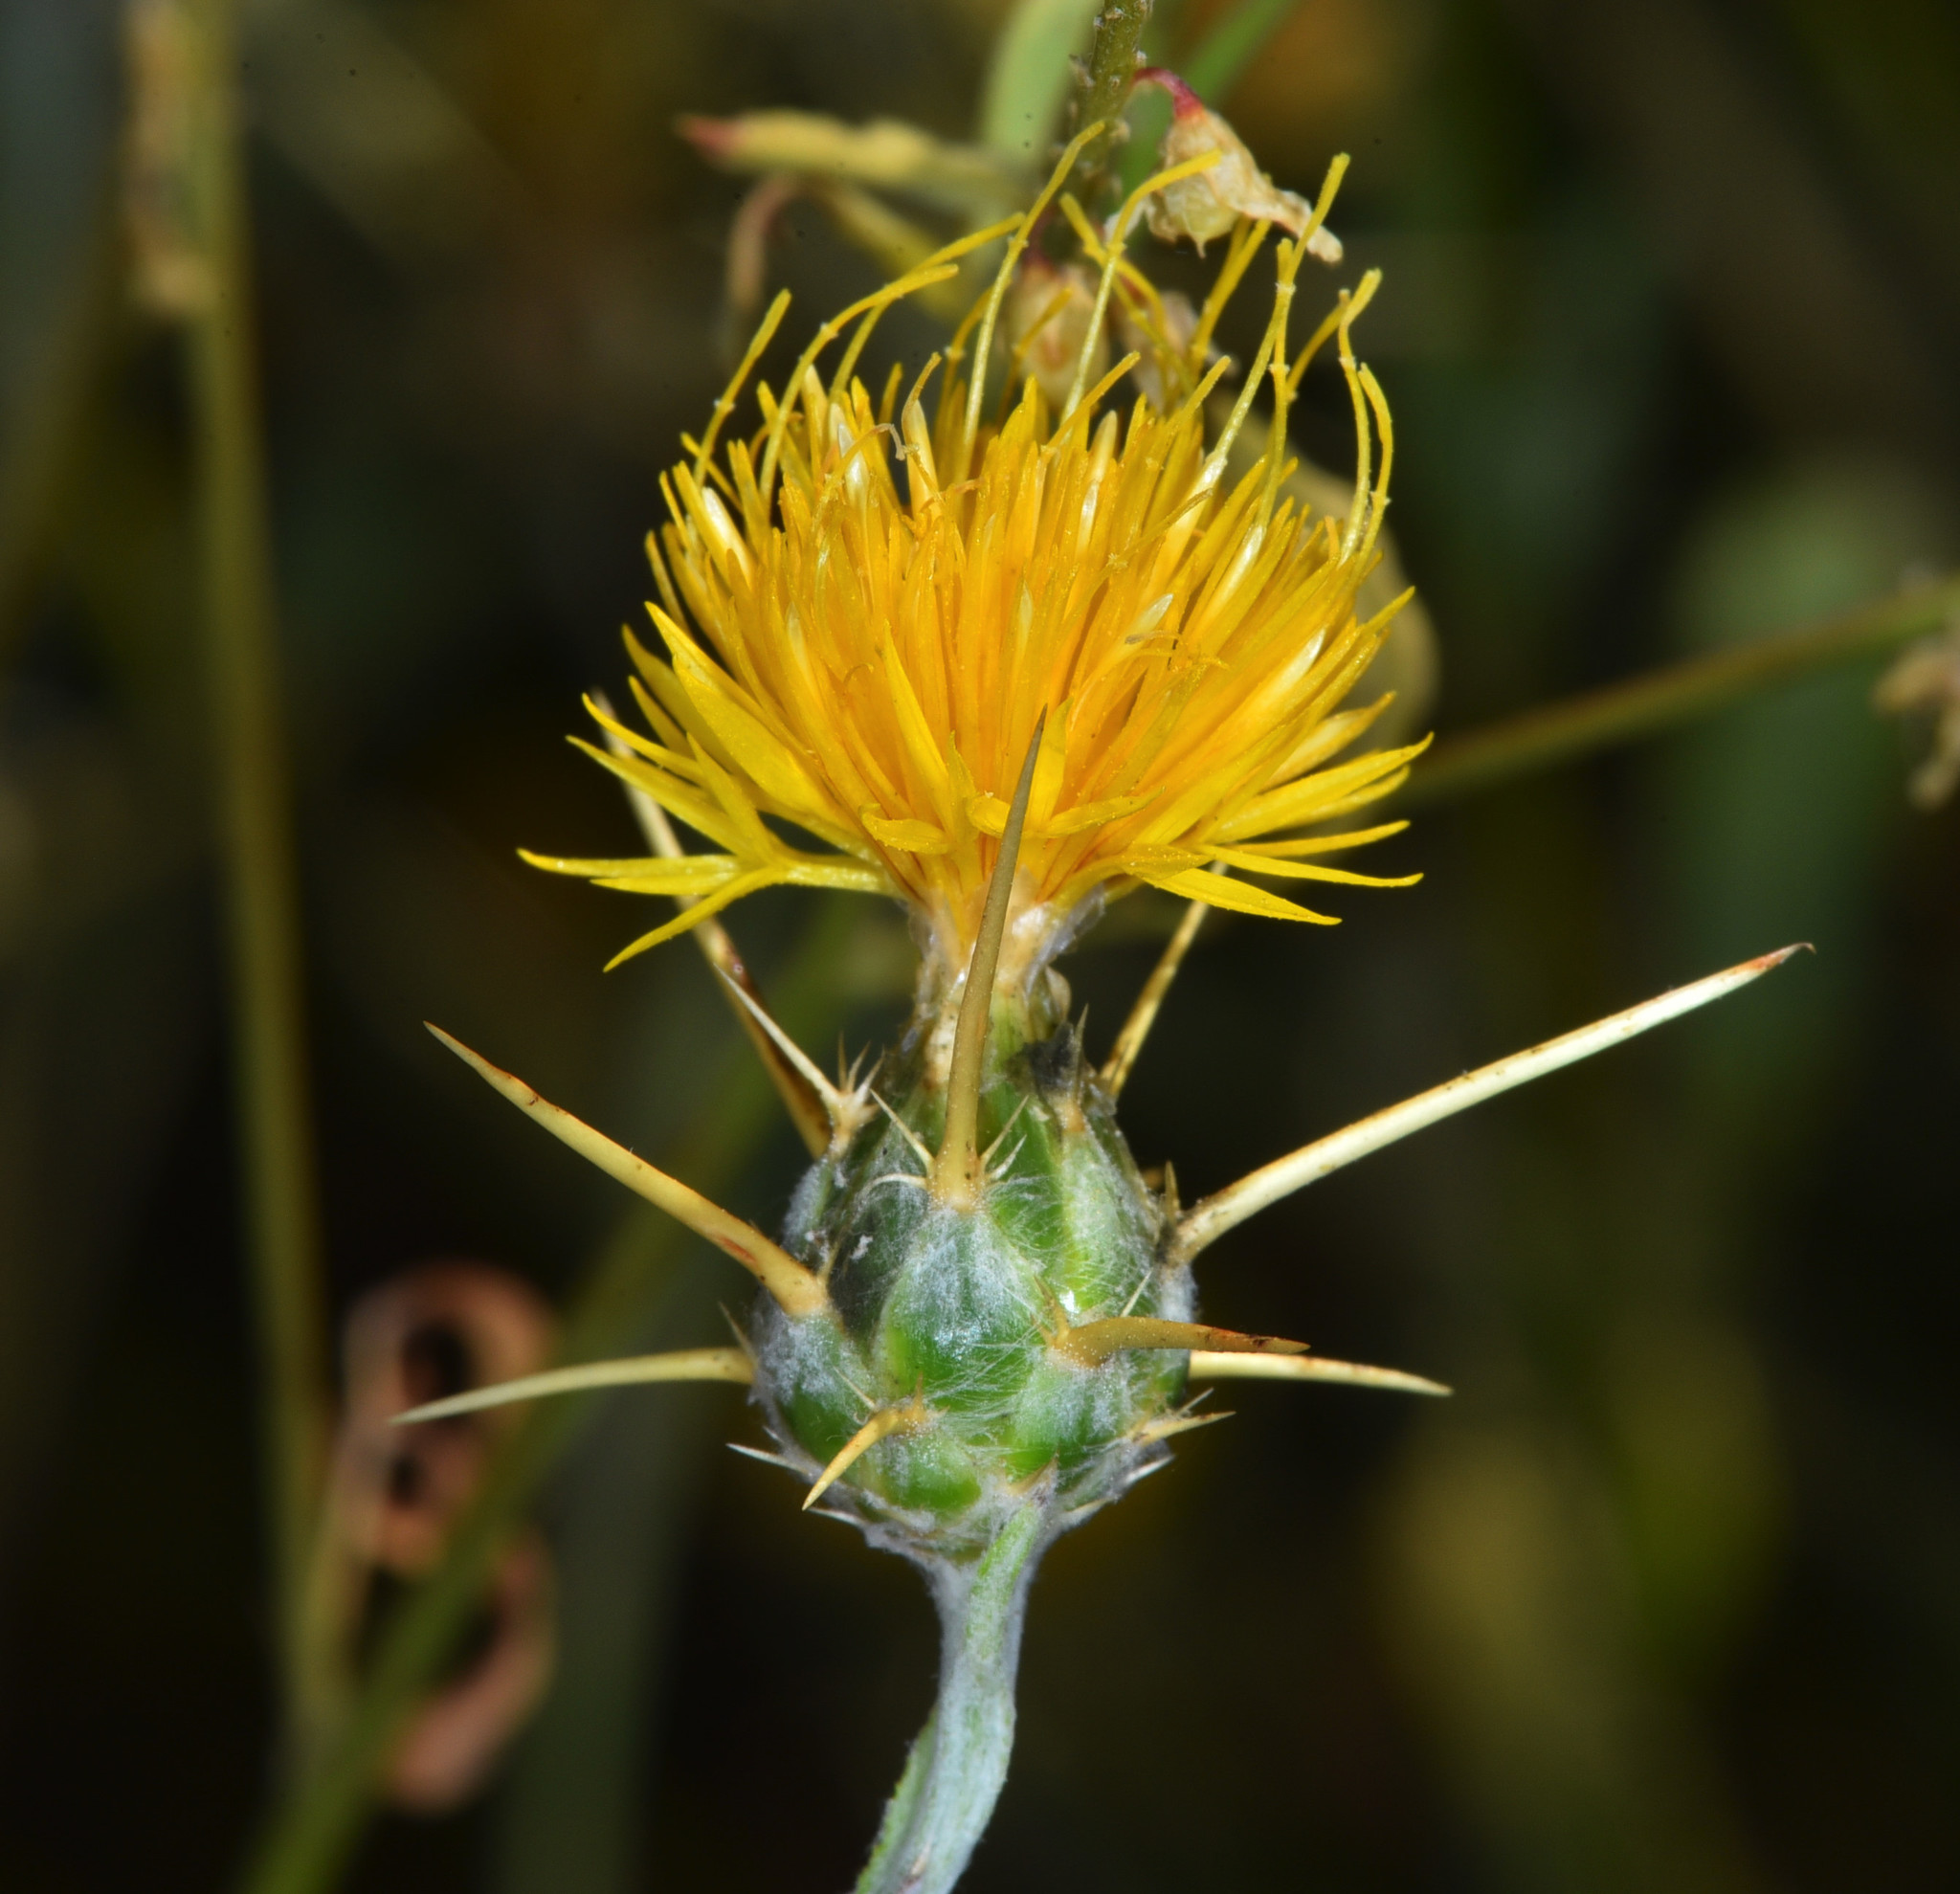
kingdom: Plantae
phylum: Tracheophyta
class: Magnoliopsida
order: Asterales
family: Asteraceae
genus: Centaurea
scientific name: Centaurea solstitialis
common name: Yellow star-thistle
